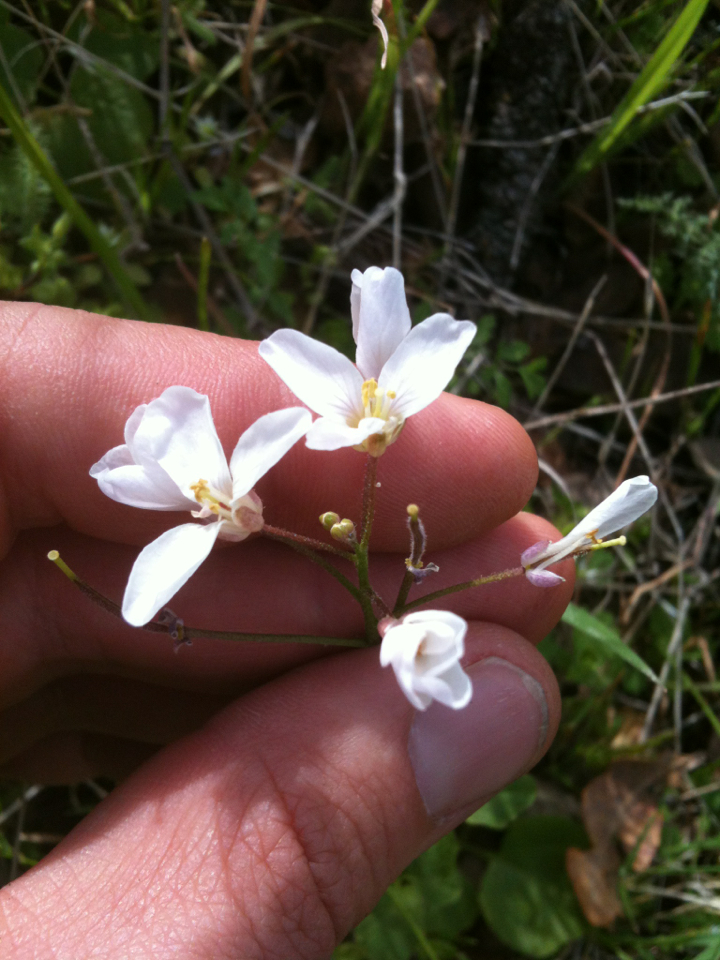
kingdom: Plantae
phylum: Tracheophyta
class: Magnoliopsida
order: Brassicales
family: Brassicaceae
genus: Cardamine
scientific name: Cardamine californica
